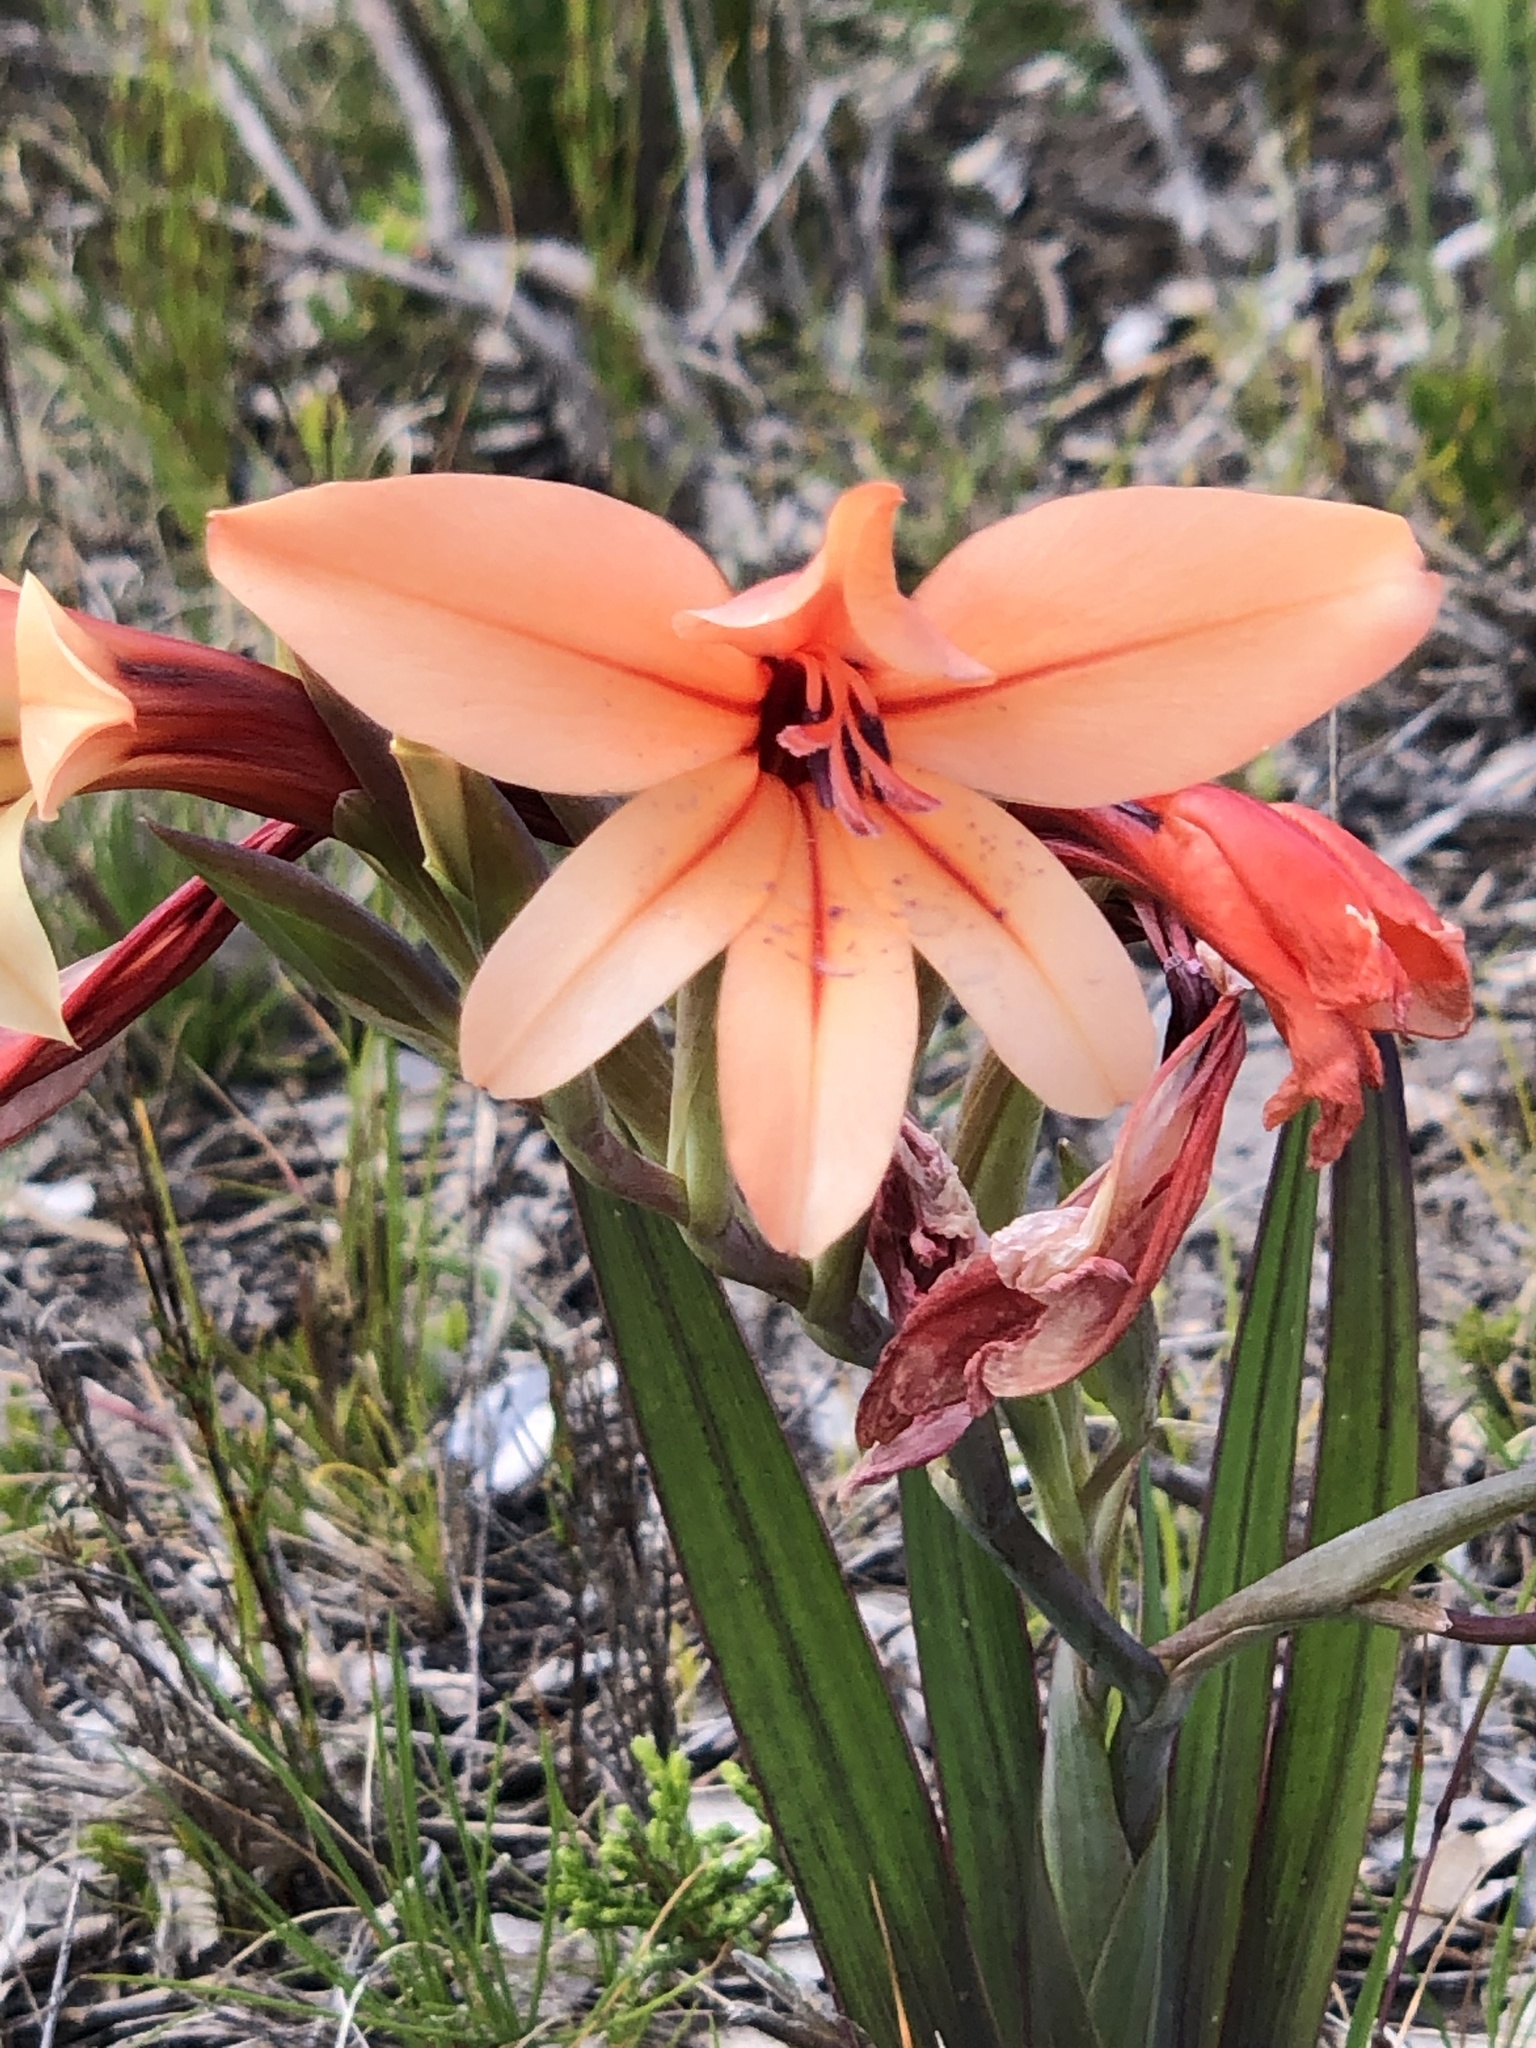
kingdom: Plantae
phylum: Tracheophyta
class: Liliopsida
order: Asparagales
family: Iridaceae
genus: Gladiolus
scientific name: Gladiolus miniatus
